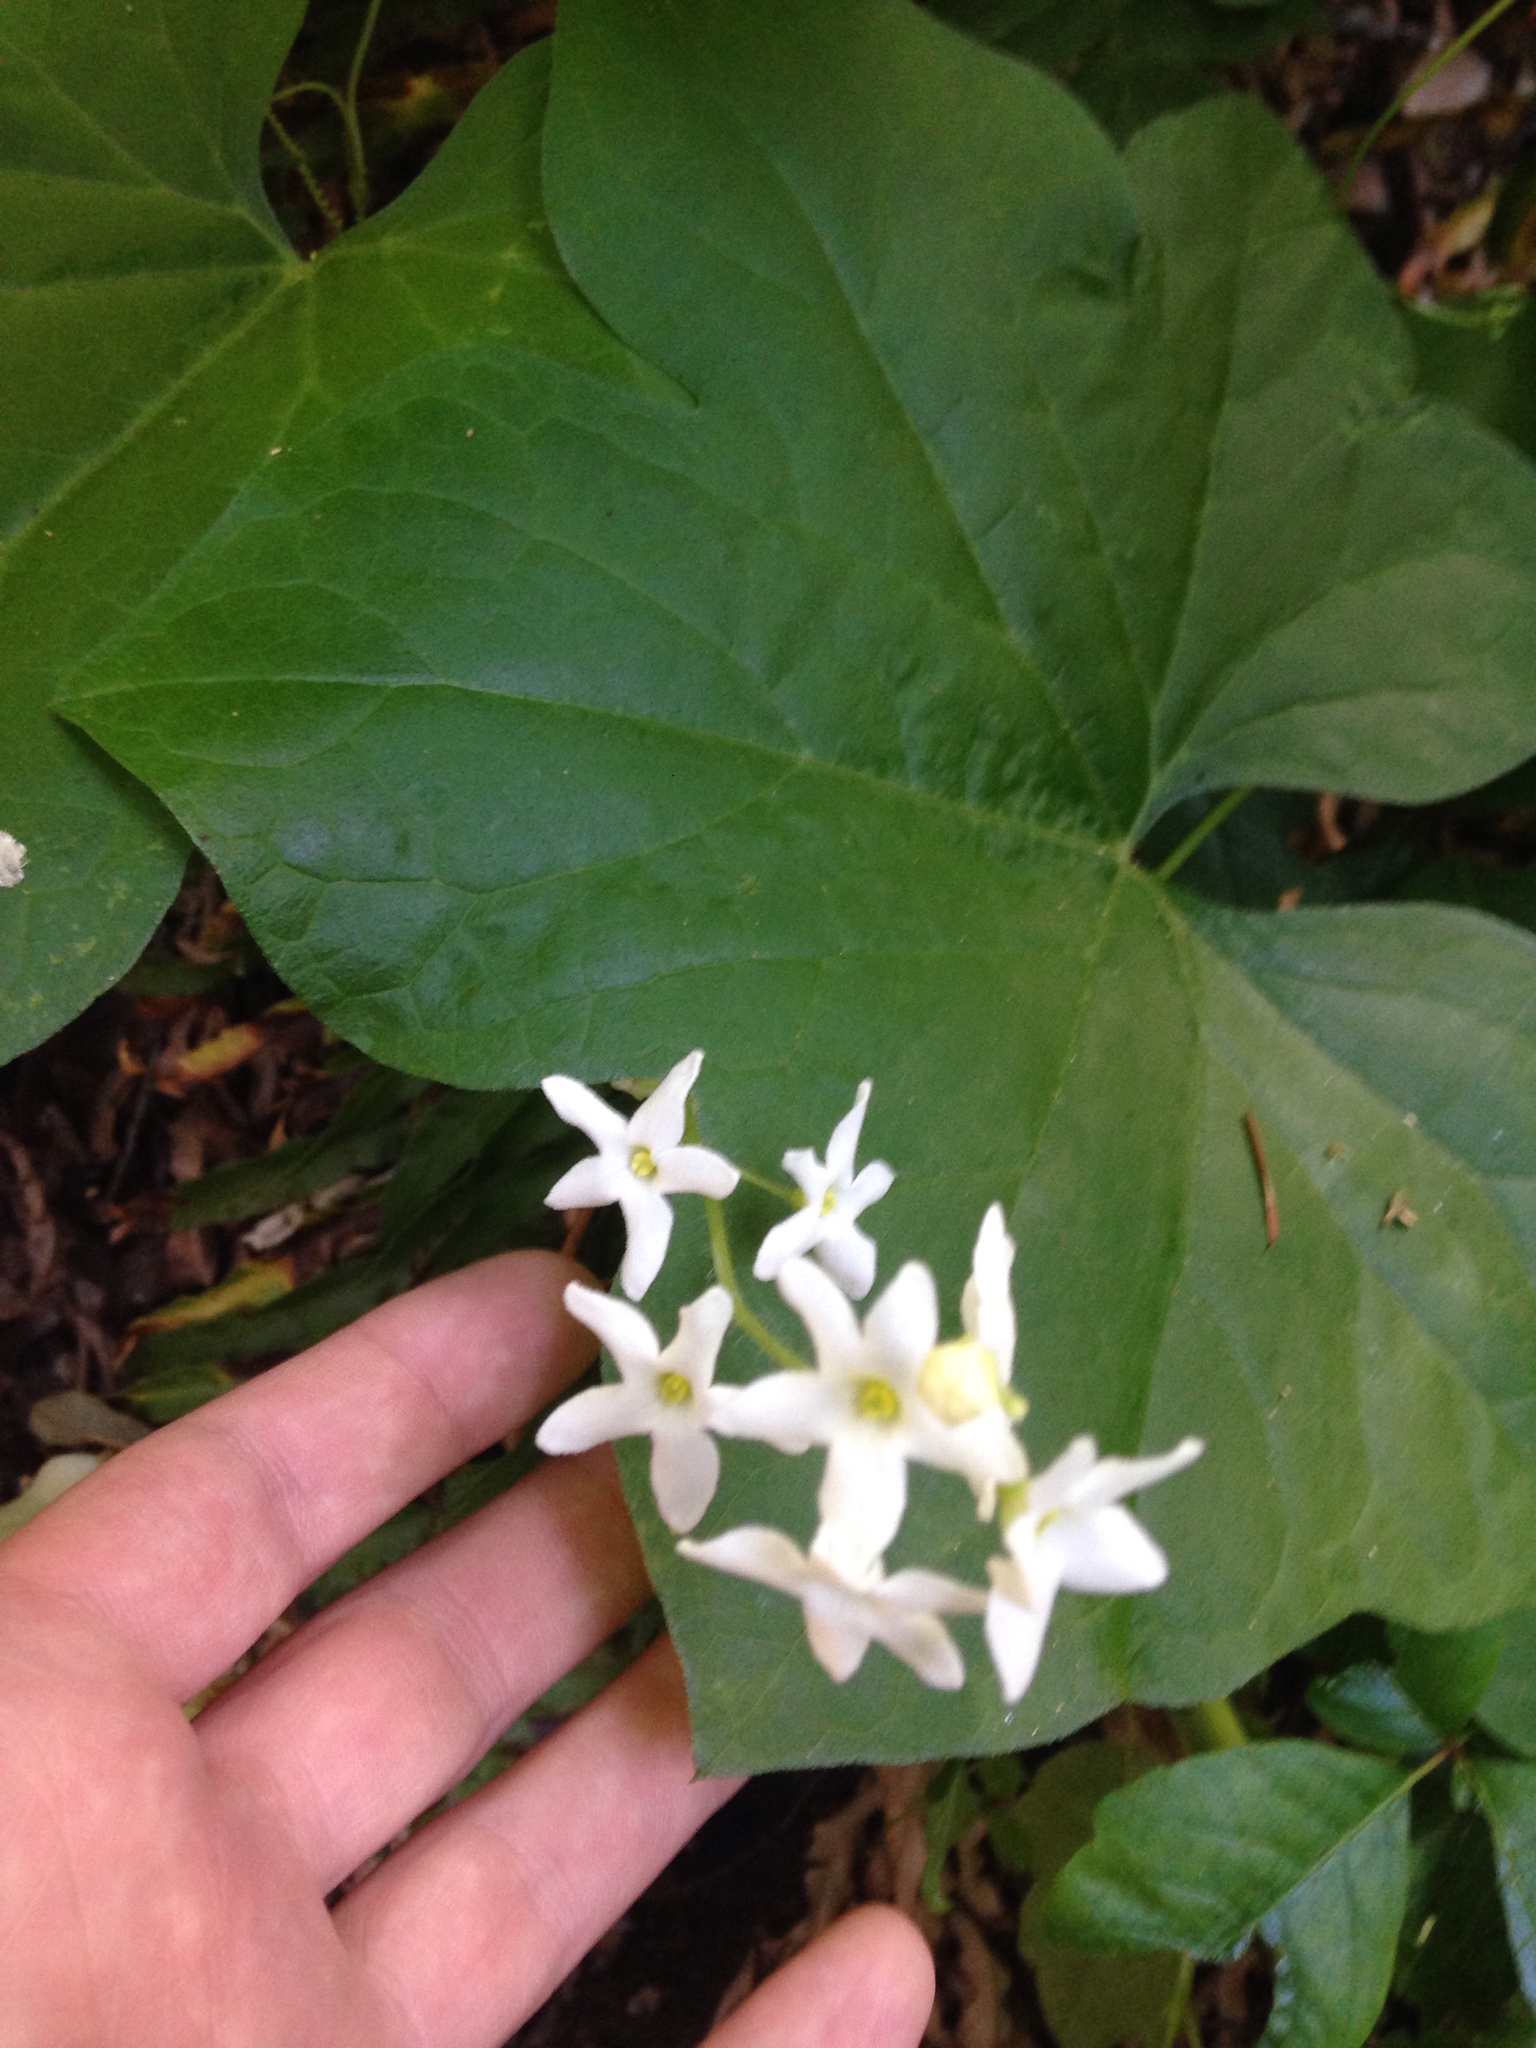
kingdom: Plantae
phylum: Tracheophyta
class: Magnoliopsida
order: Cucurbitales
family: Cucurbitaceae
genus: Marah
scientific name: Marah oregana
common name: Coastal manroot
